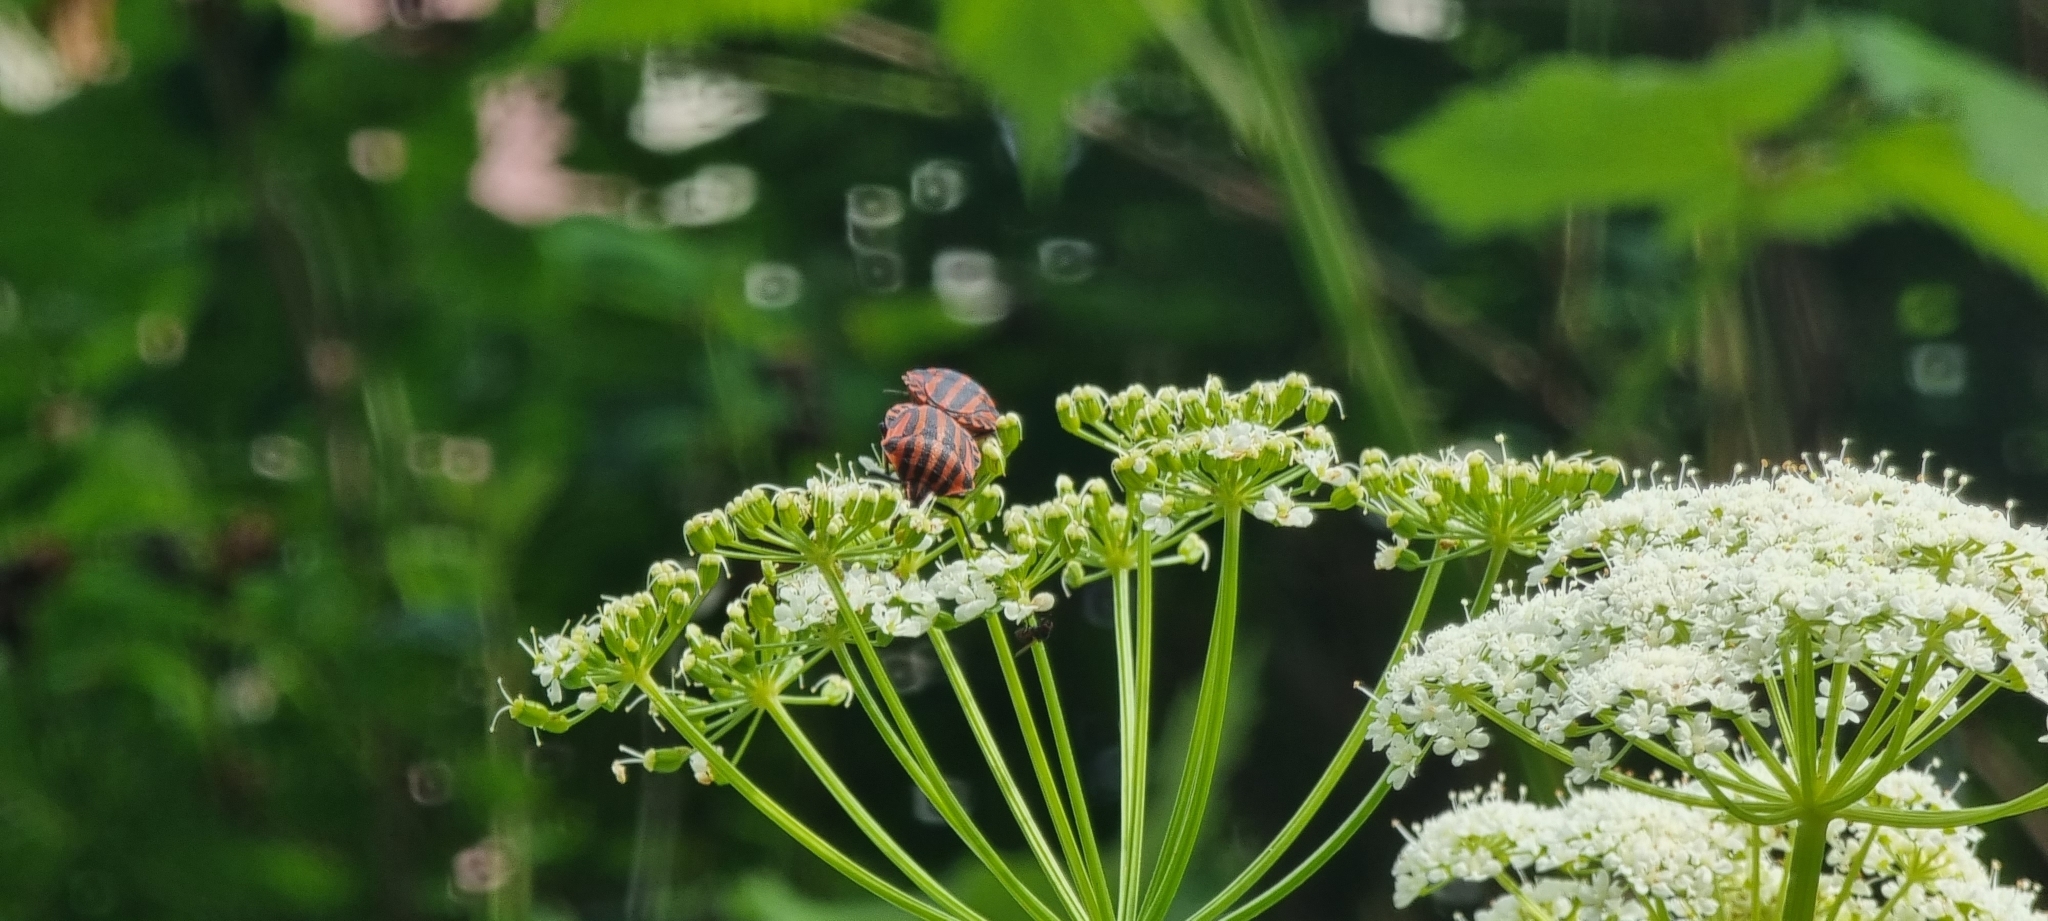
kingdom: Animalia
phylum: Arthropoda
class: Insecta
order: Hemiptera
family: Pentatomidae
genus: Graphosoma
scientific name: Graphosoma italicum
